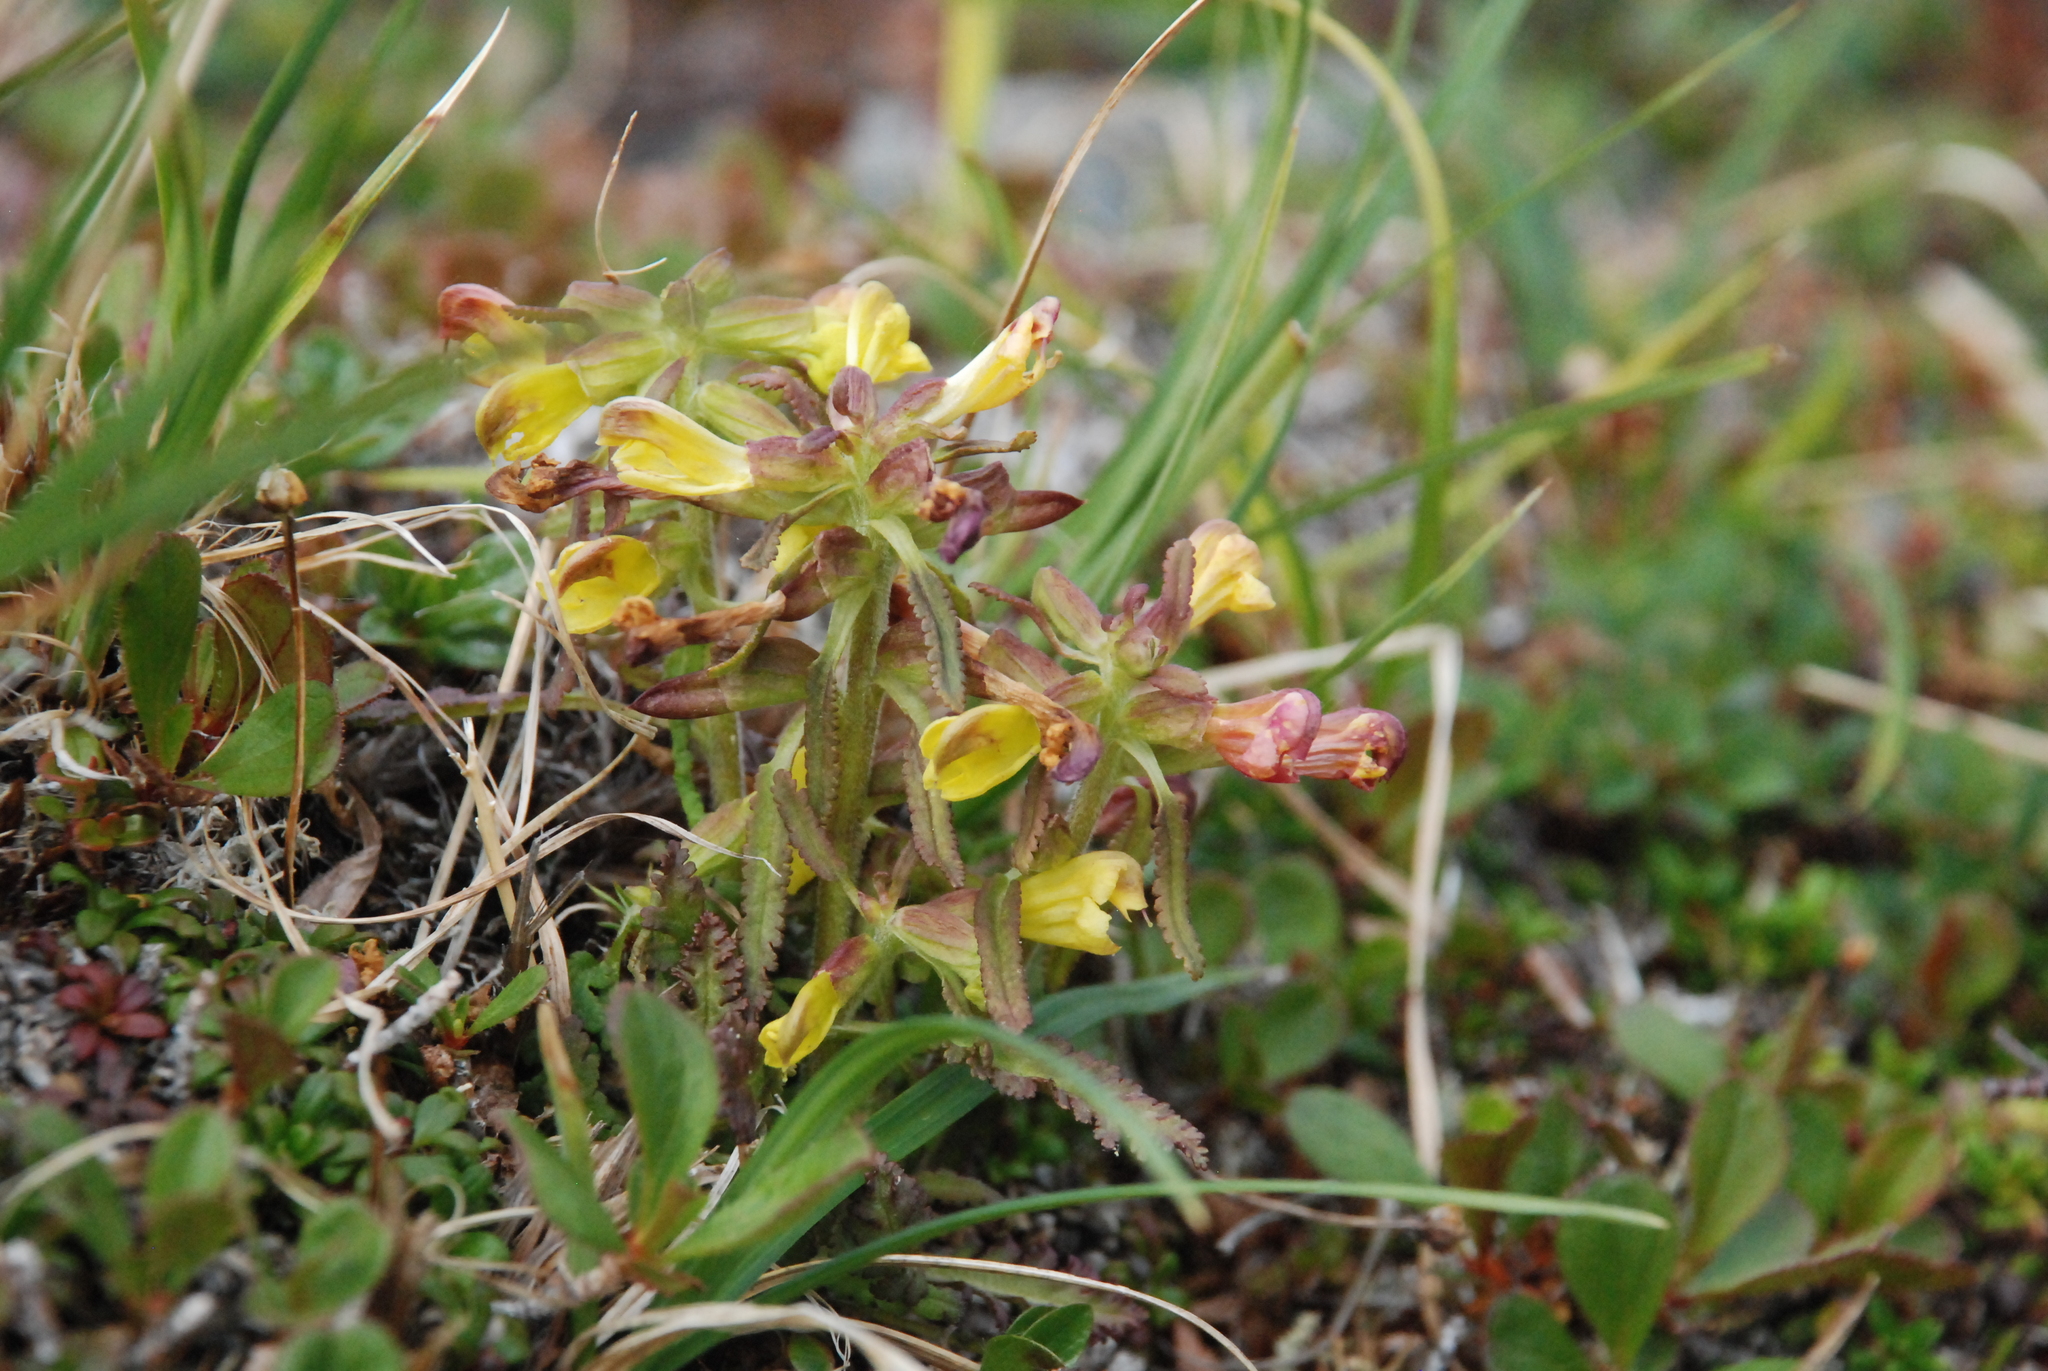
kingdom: Plantae
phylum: Tracheophyta
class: Magnoliopsida
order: Lamiales
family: Orobanchaceae
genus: Pedicularis
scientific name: Pedicularis labradorica
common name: Labrador lousewort
